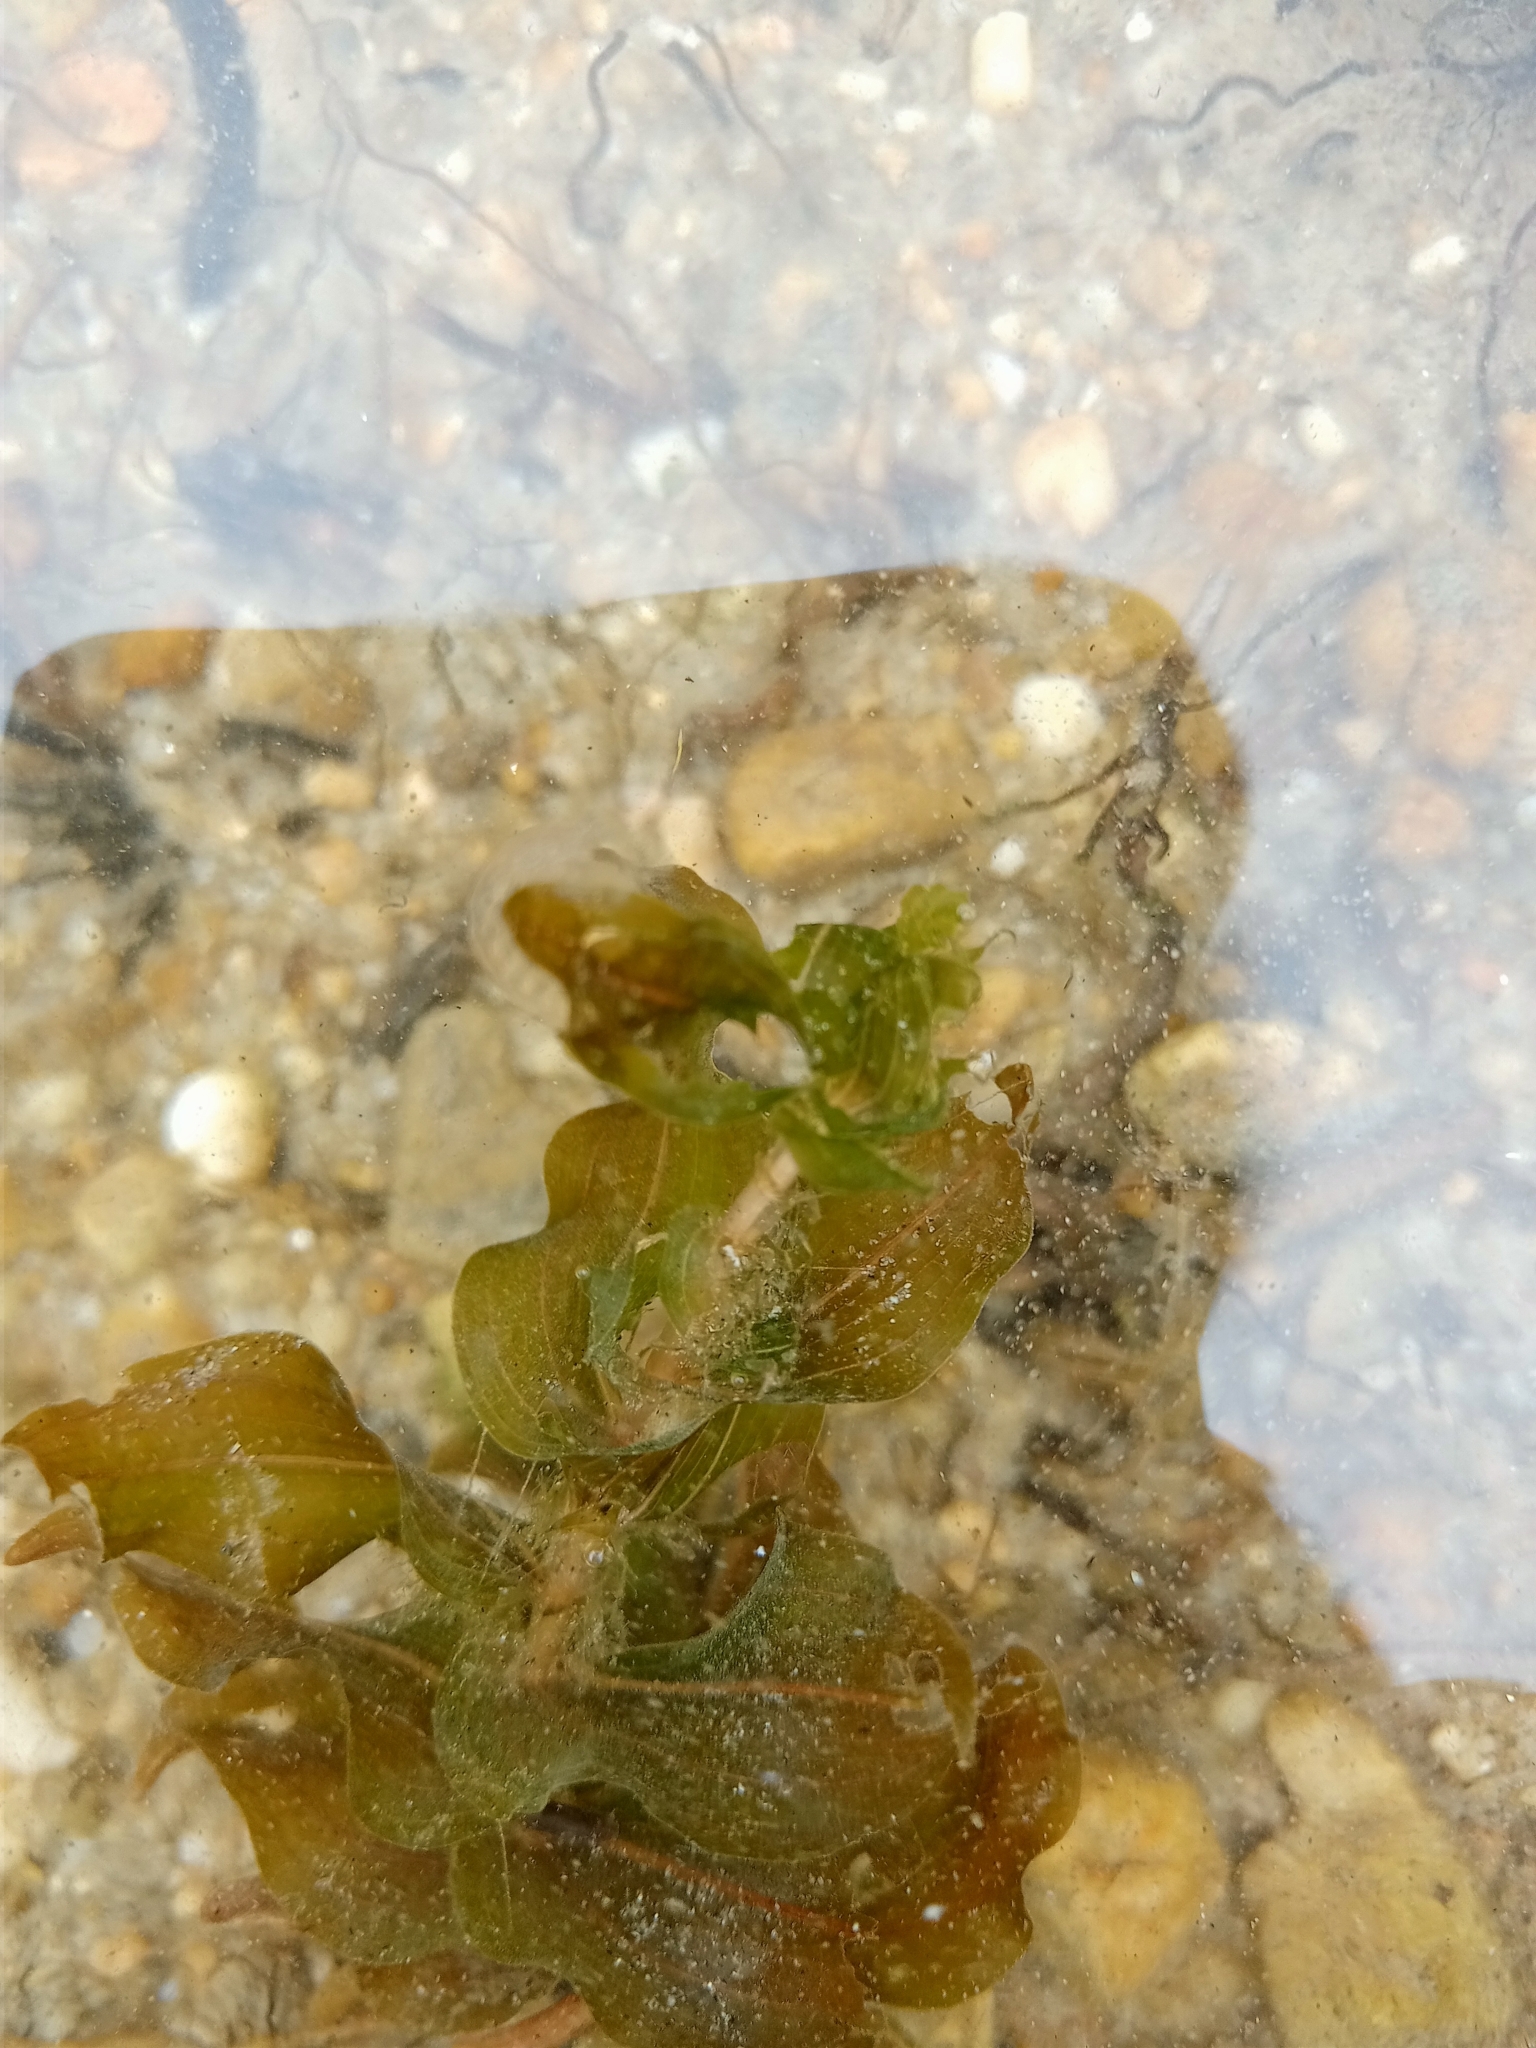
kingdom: Plantae
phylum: Tracheophyta
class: Liliopsida
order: Alismatales
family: Potamogetonaceae
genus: Potamogeton
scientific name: Potamogeton perfoliatus
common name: Perfoliate pondweed
